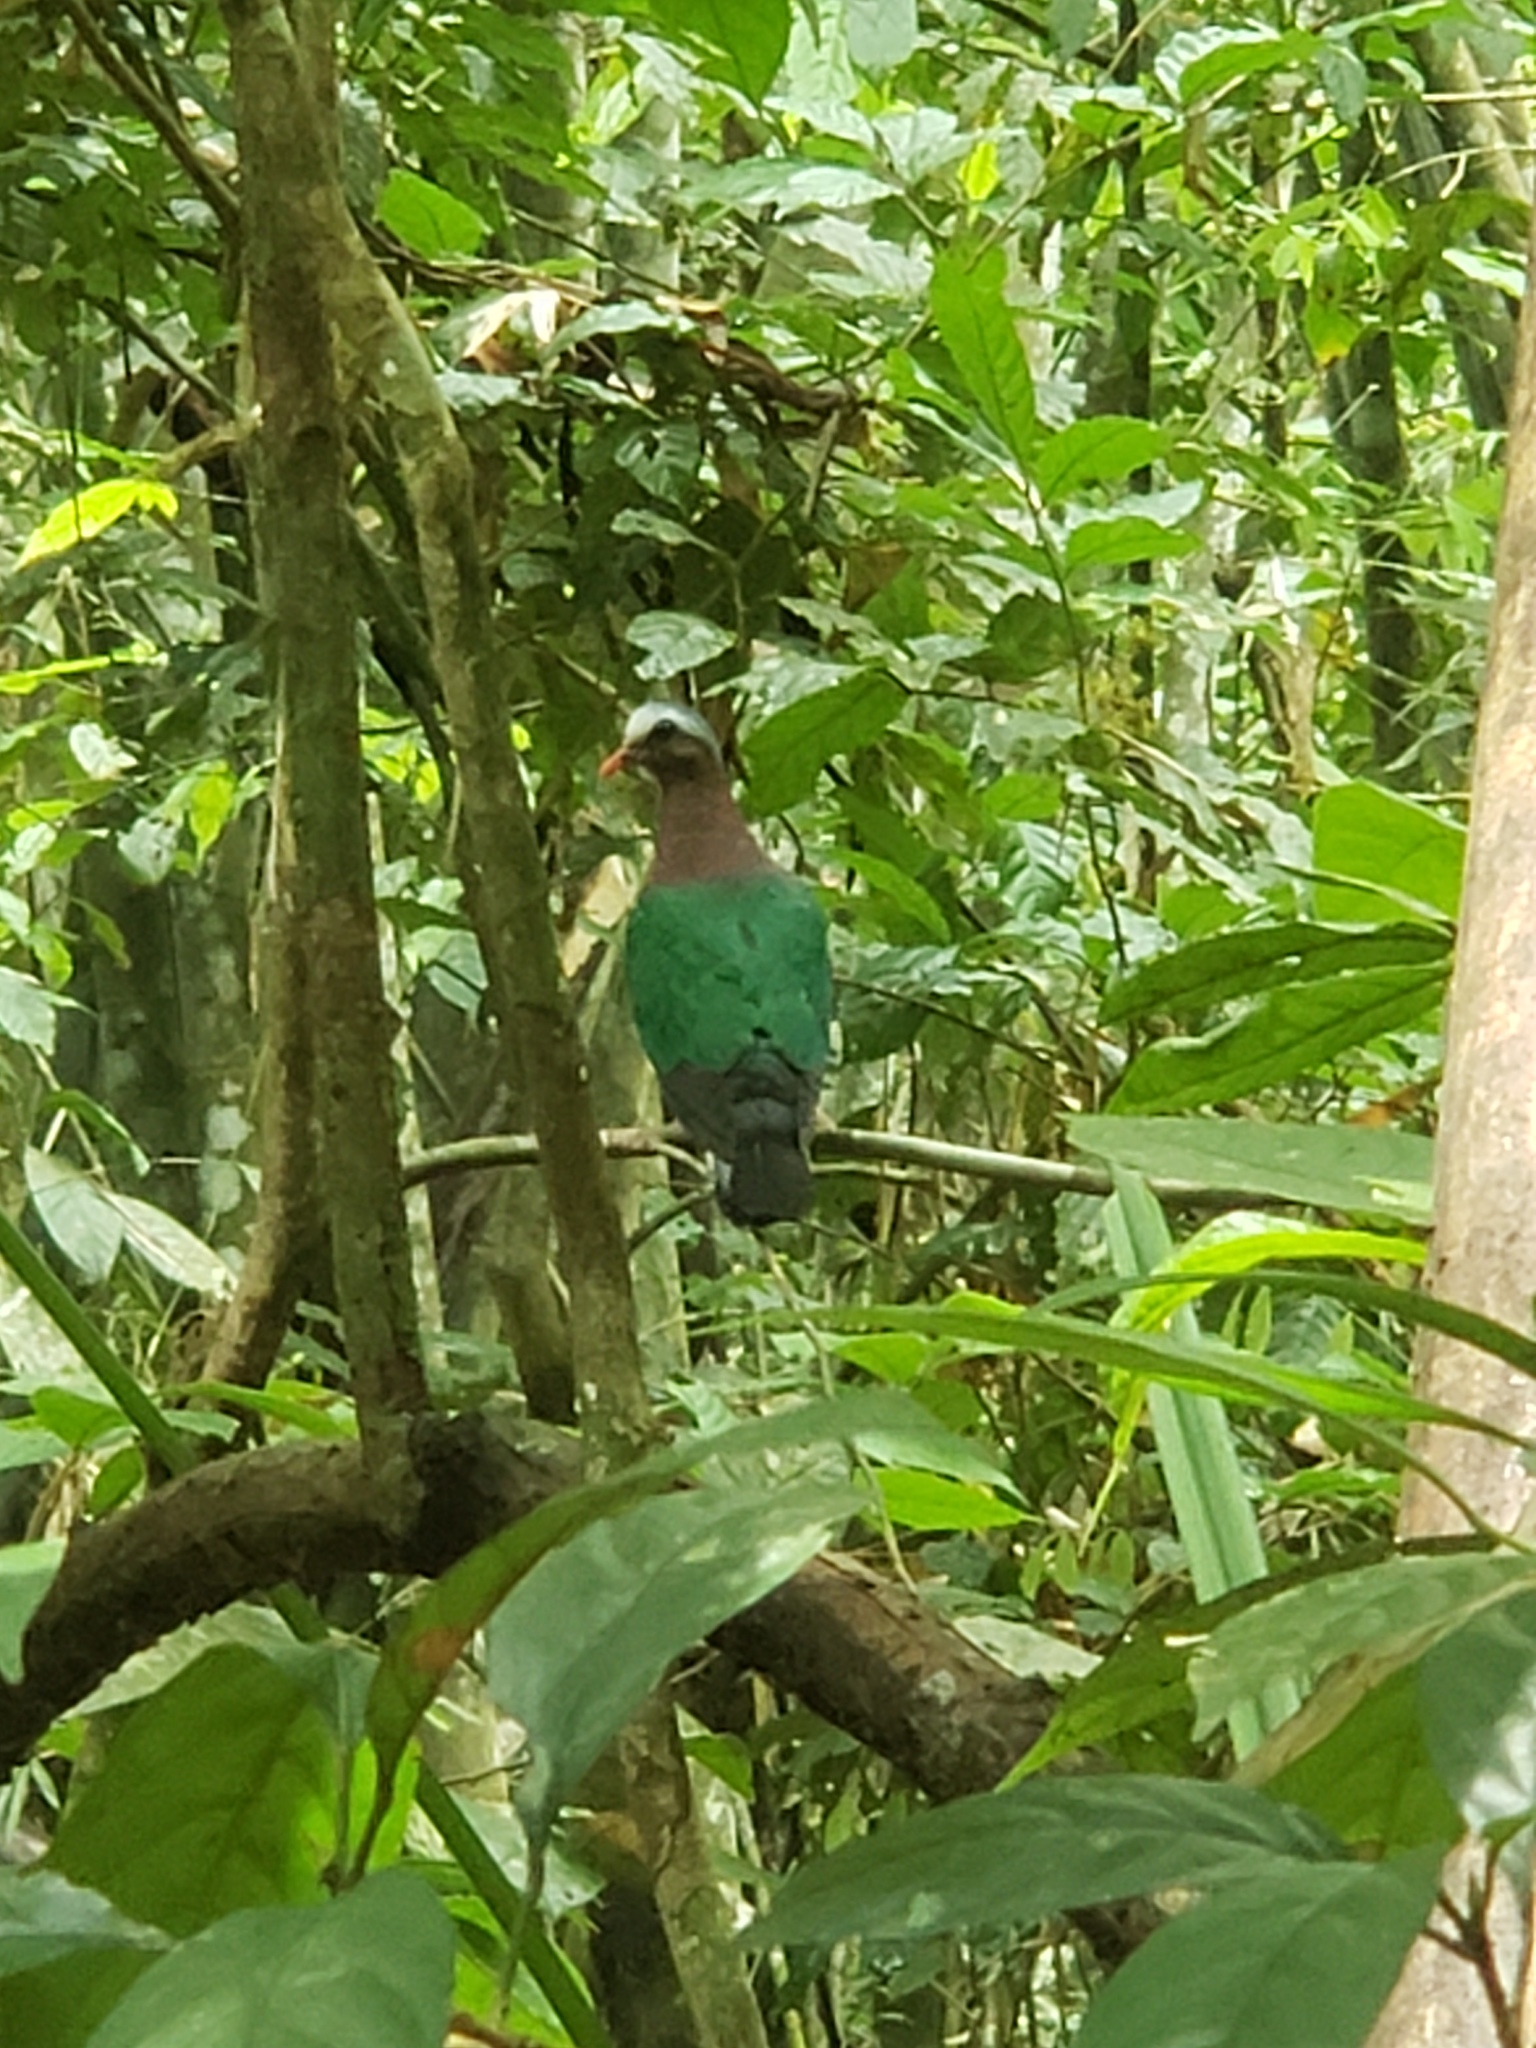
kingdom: Animalia
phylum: Chordata
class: Aves
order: Columbiformes
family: Columbidae
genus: Chalcophaps
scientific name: Chalcophaps indica
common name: Common emerald dove
